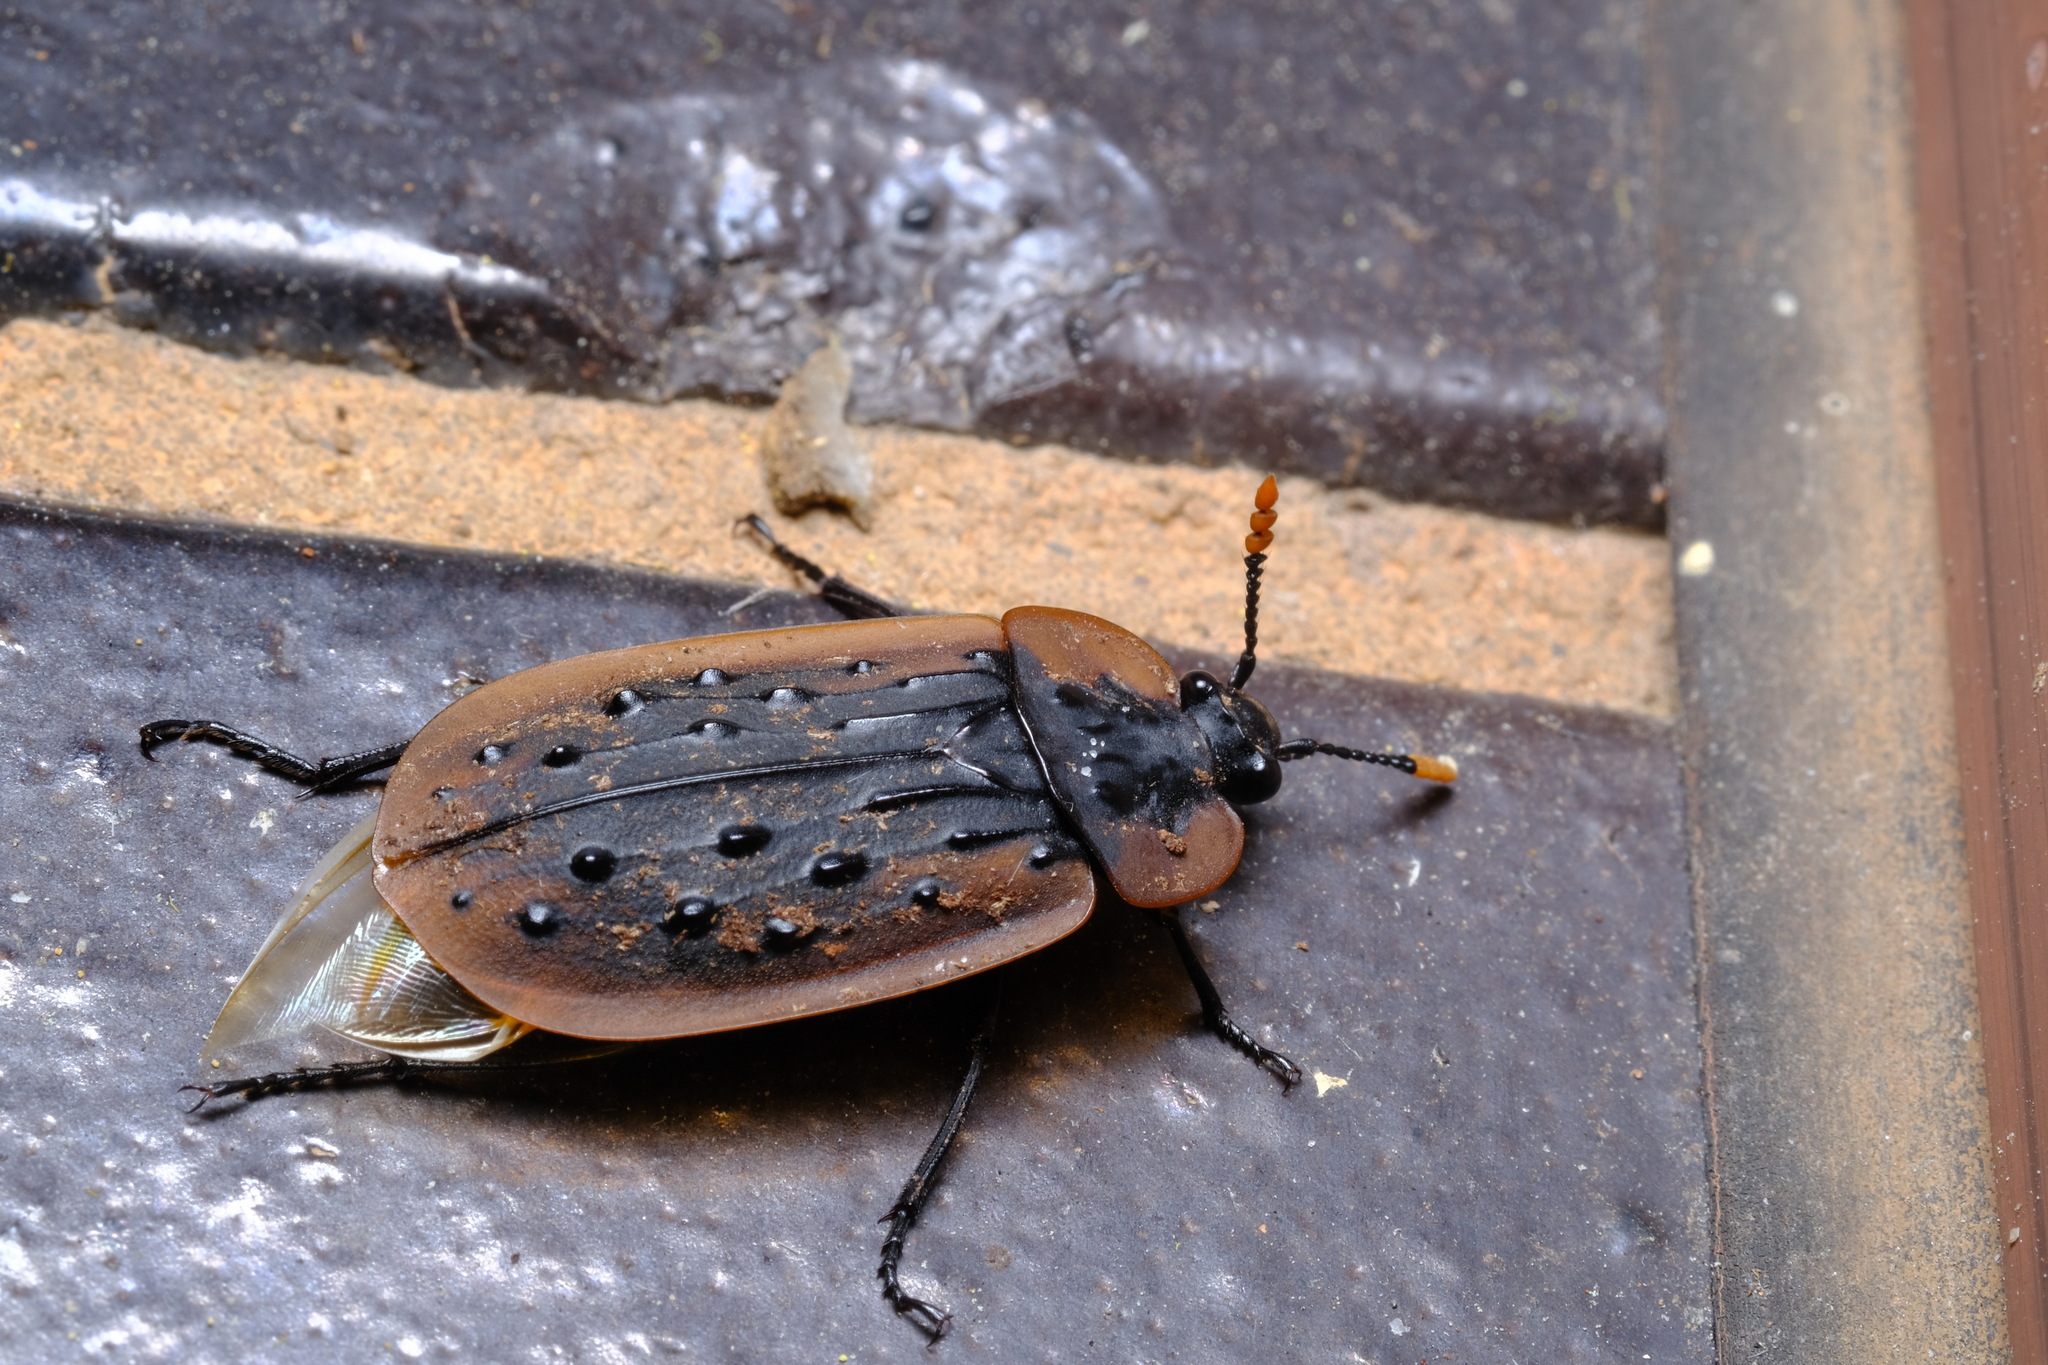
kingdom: Animalia
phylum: Arthropoda
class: Insecta
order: Coleoptera
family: Staphylinidae
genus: Ptomaphila
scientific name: Ptomaphila lacrymosa
